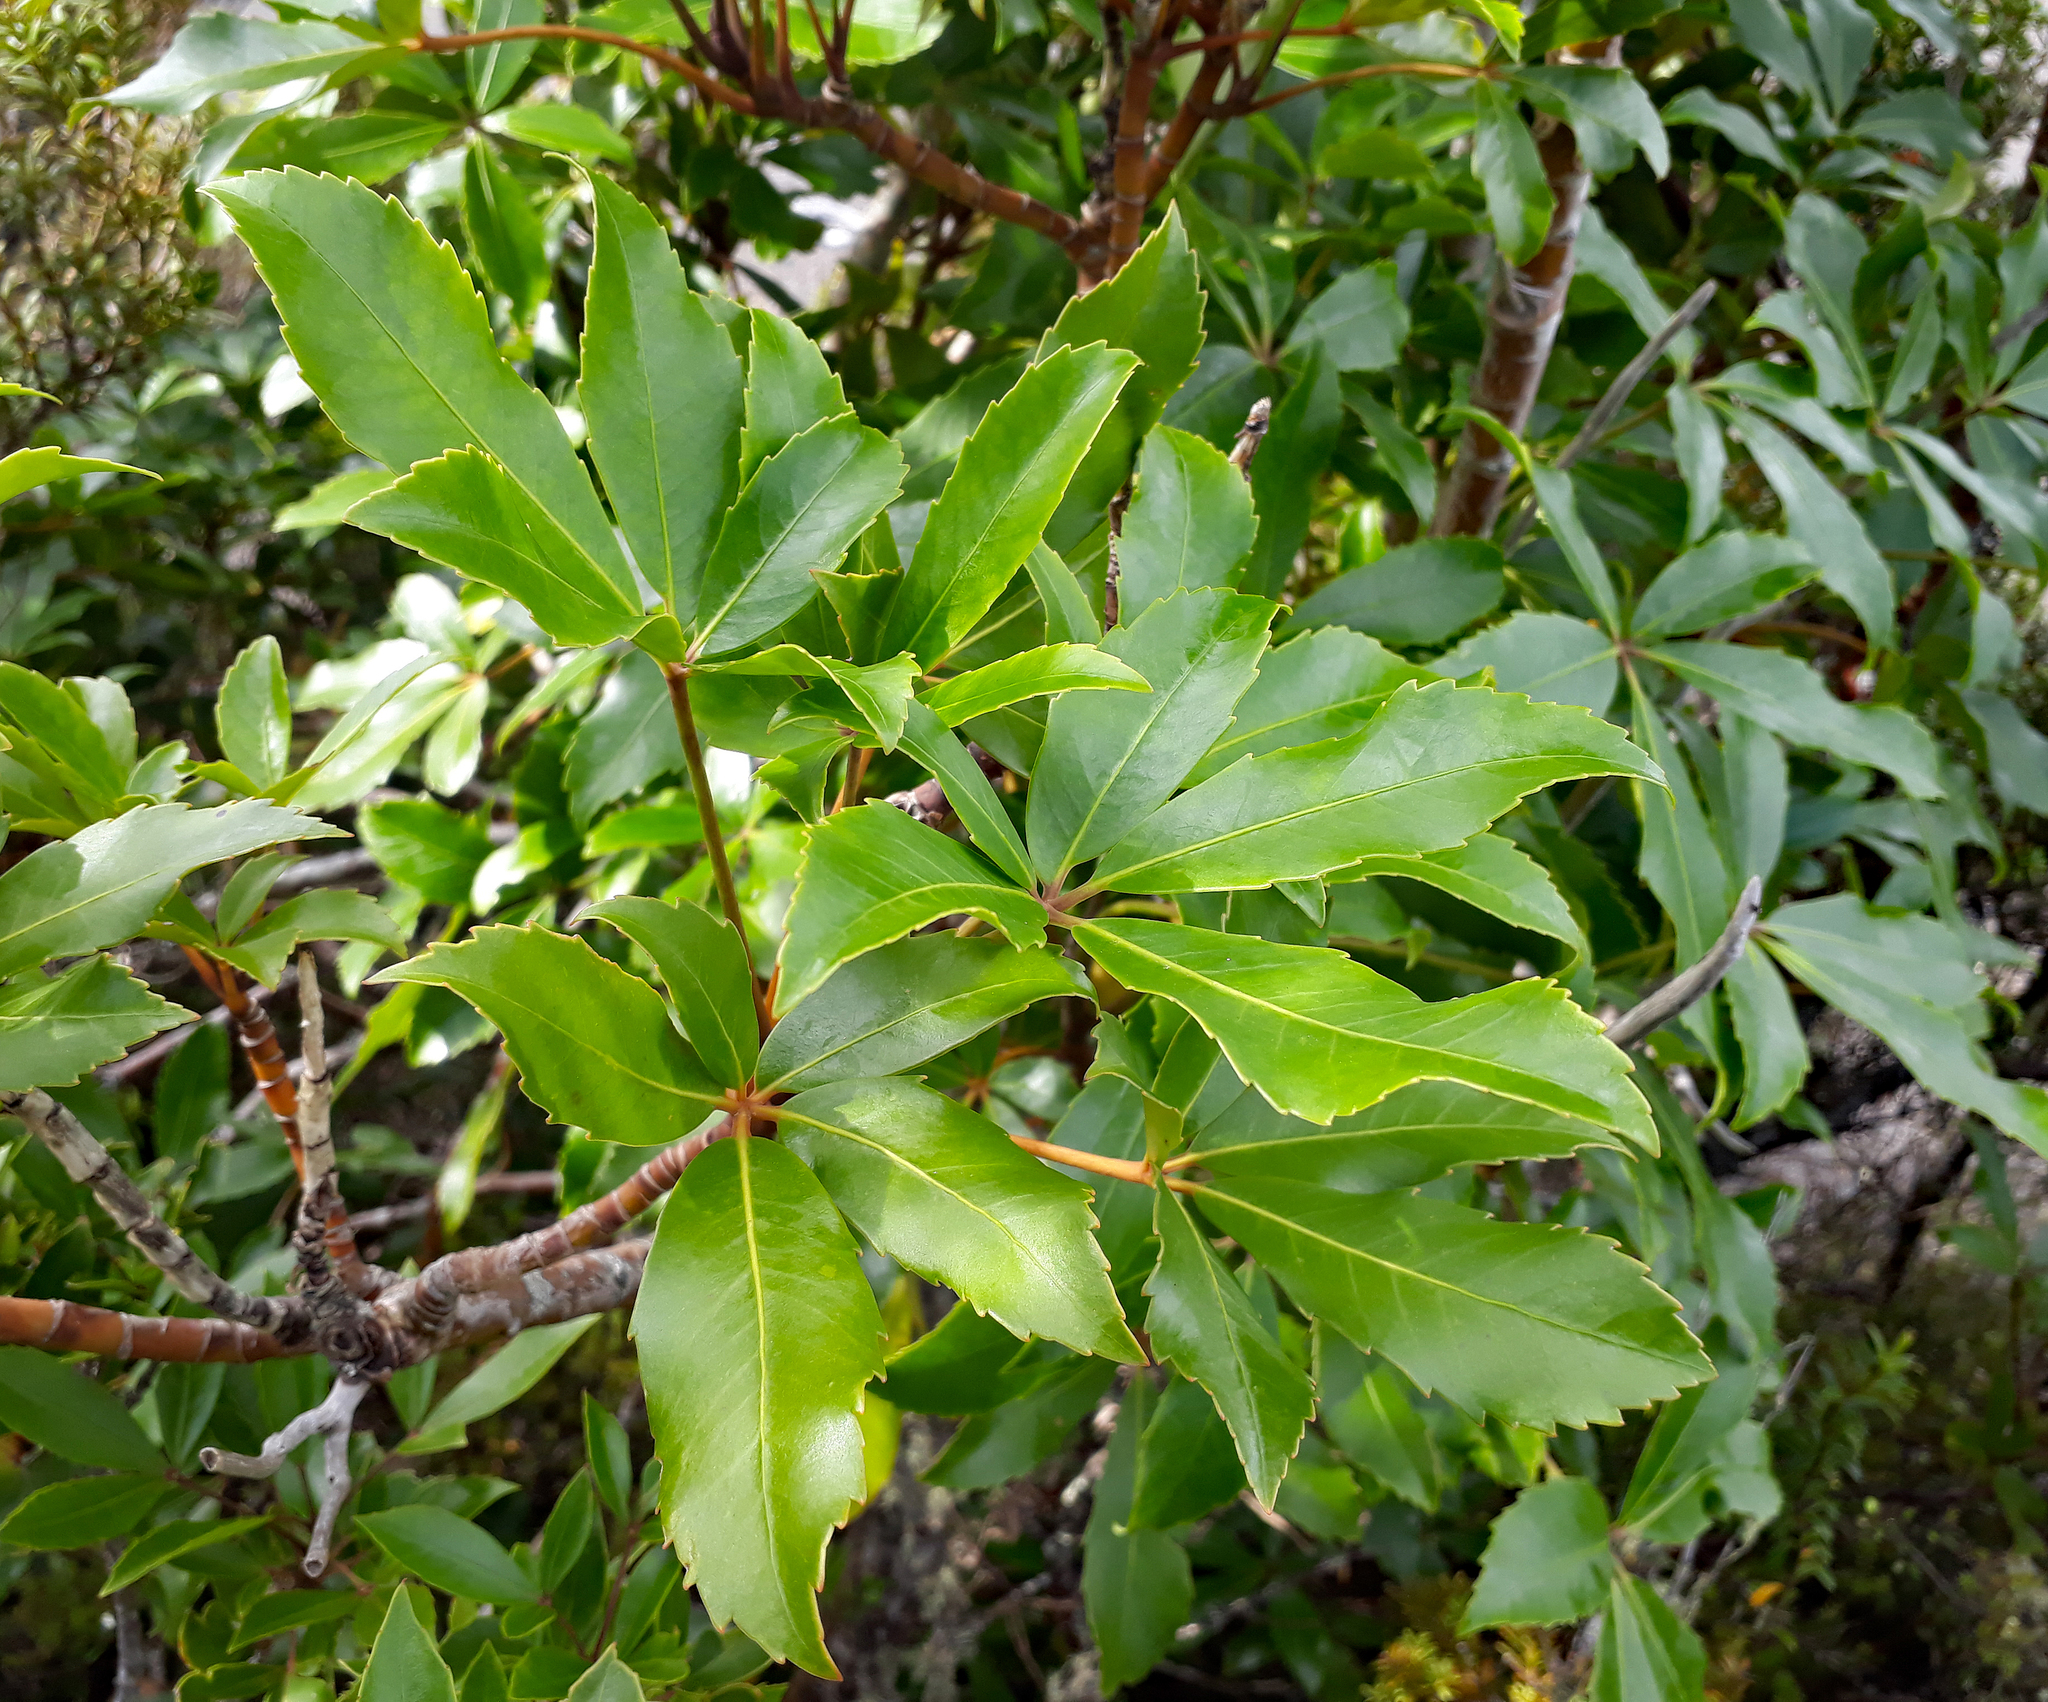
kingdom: Plantae
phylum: Tracheophyta
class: Magnoliopsida
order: Apiales
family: Araliaceae
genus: Neopanax
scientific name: Neopanax colensoi
